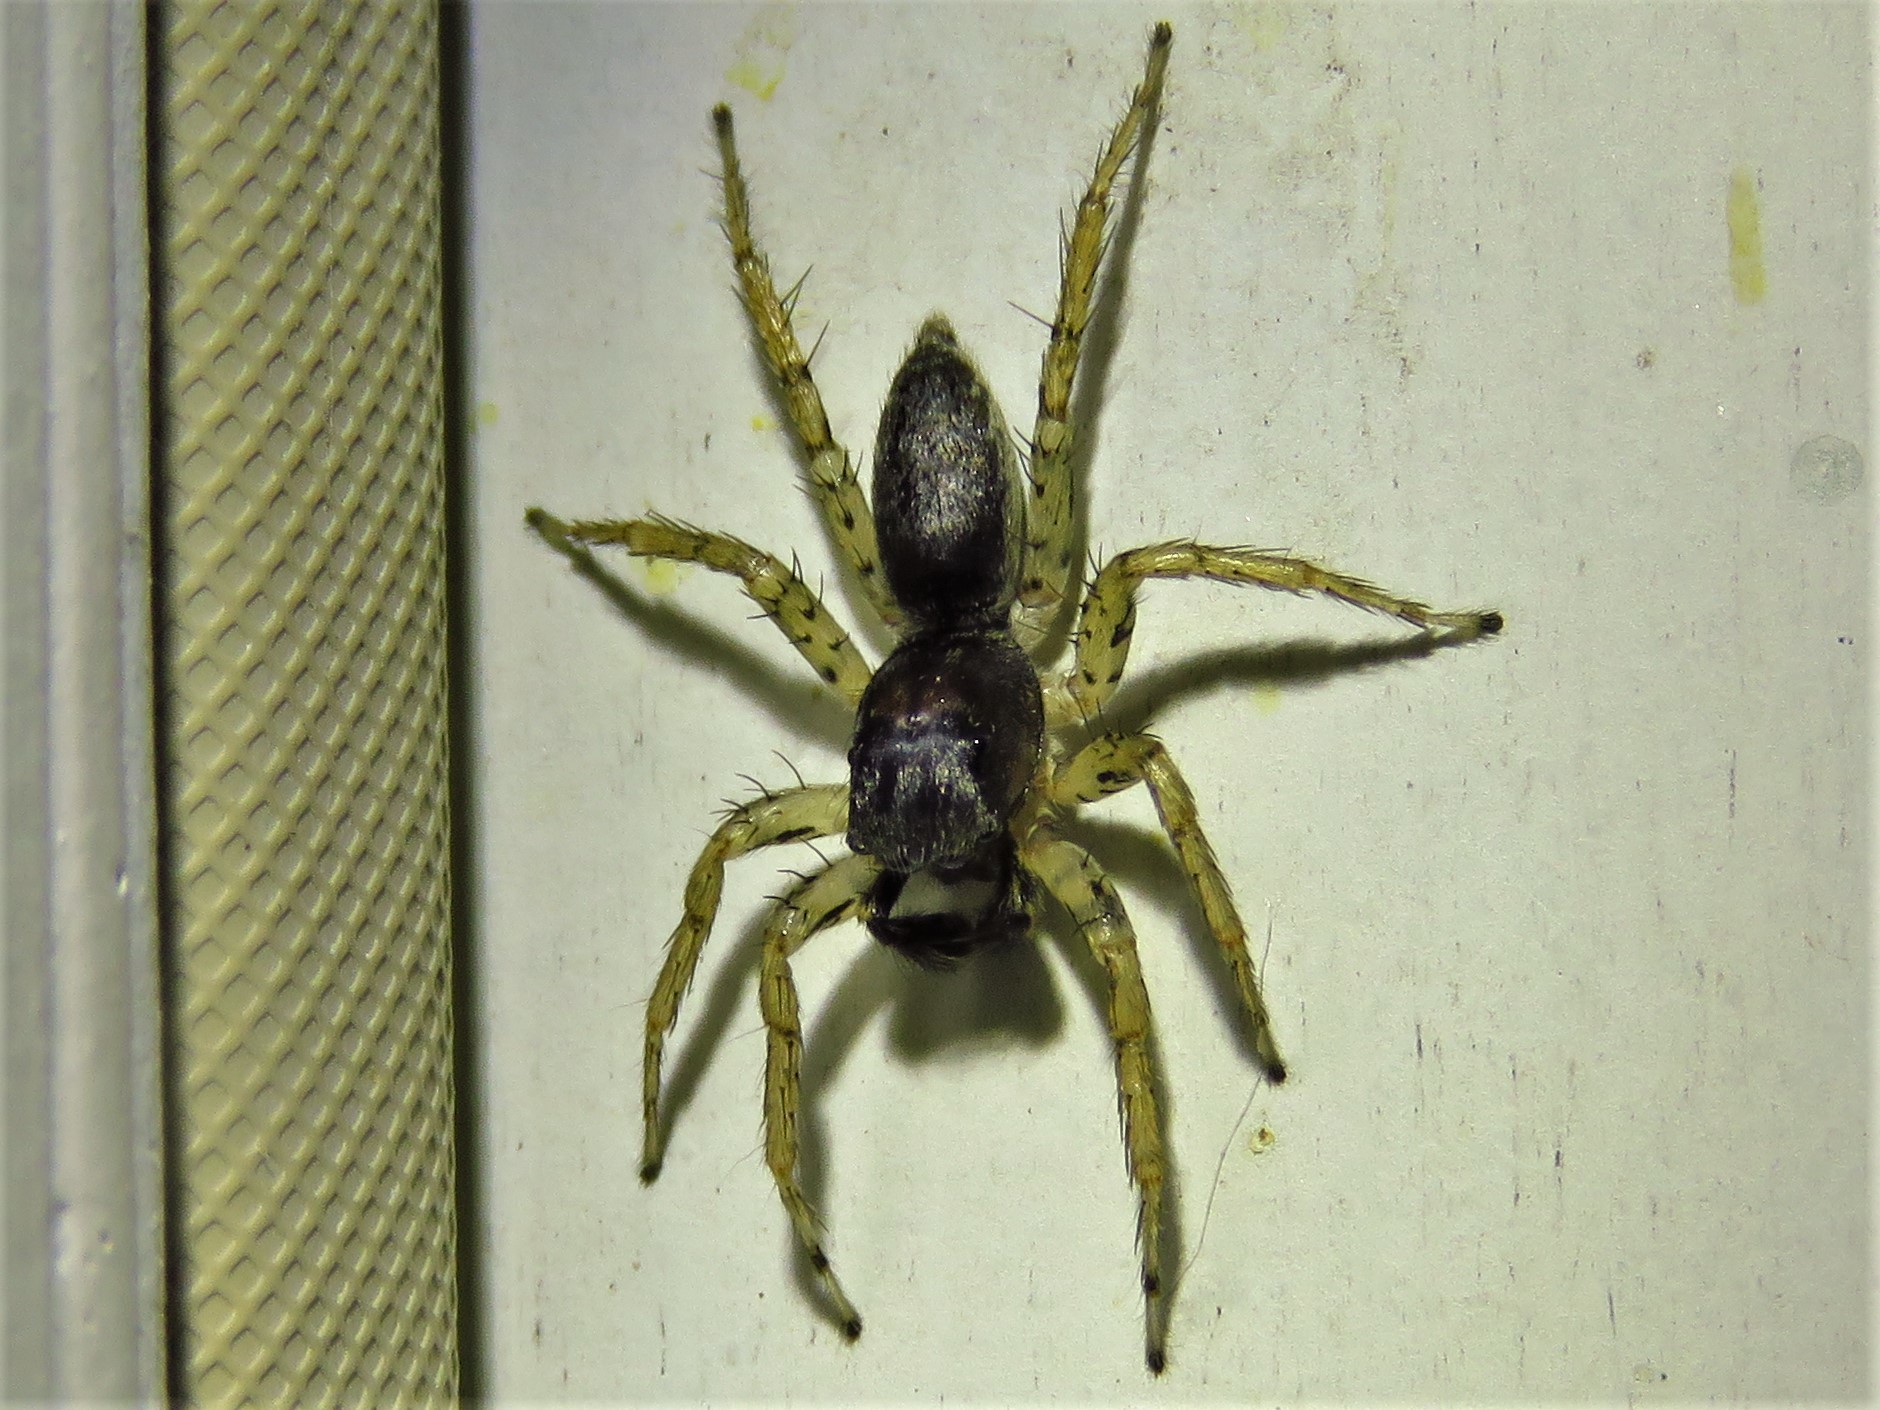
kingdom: Animalia
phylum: Arthropoda
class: Arachnida
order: Araneae
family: Salticidae
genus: Maevia
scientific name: Maevia inclemens
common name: Dimorphic jumper
